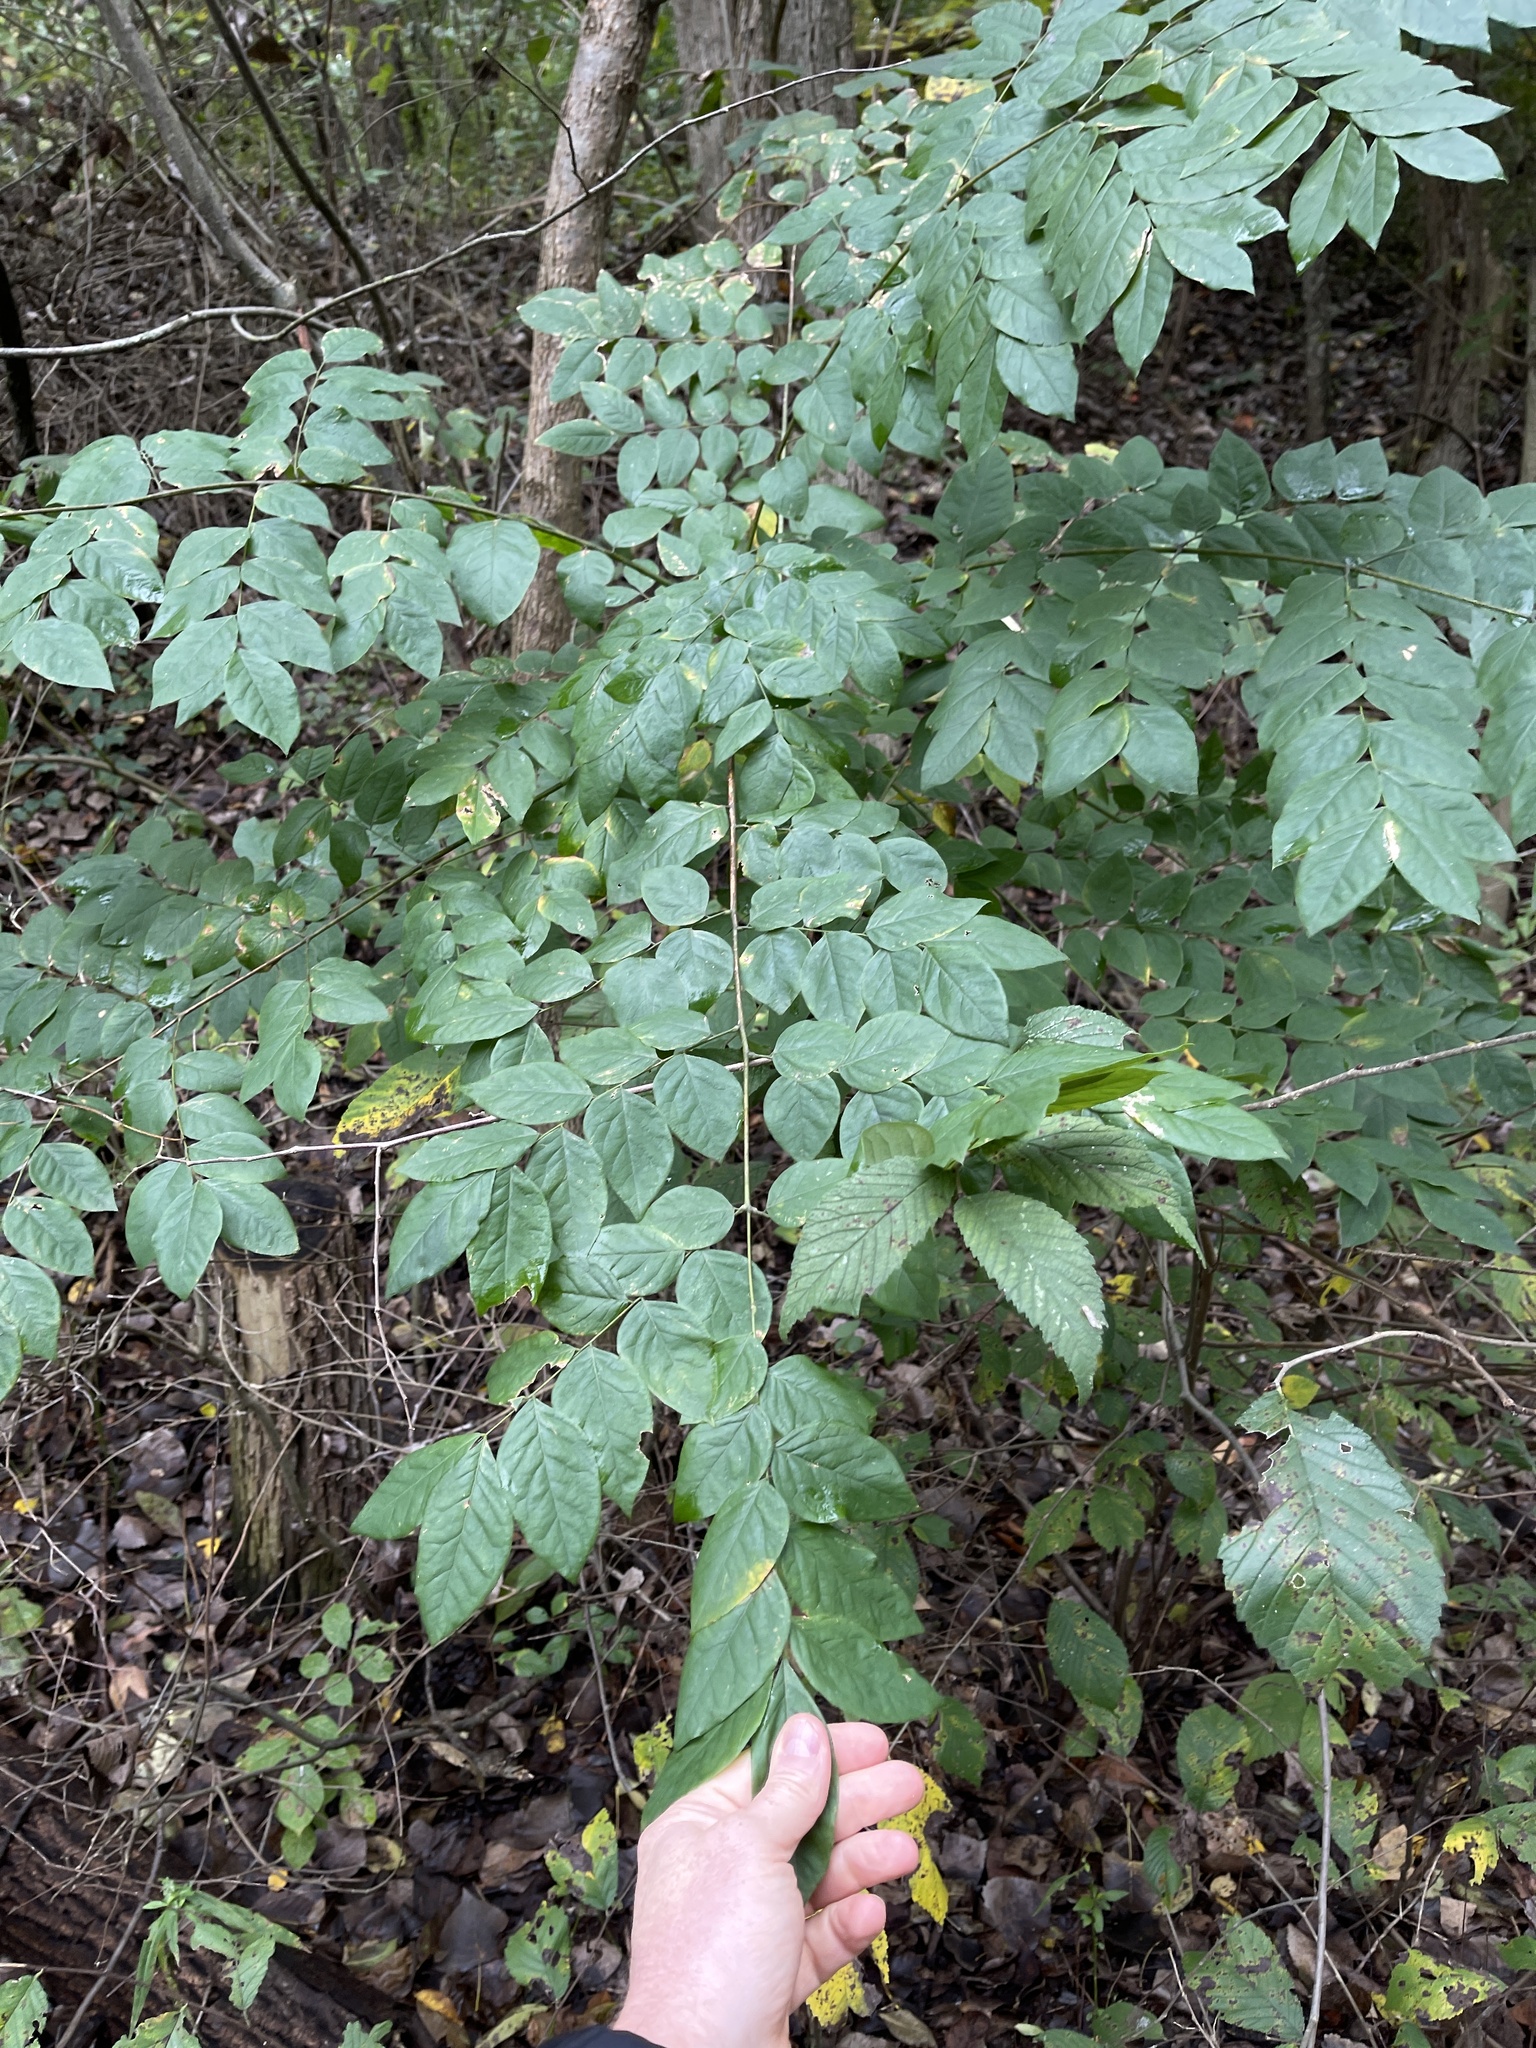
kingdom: Plantae
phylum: Tracheophyta
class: Magnoliopsida
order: Fabales
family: Fabaceae
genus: Gymnocladus
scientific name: Gymnocladus dioicus
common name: Kentucky coffee-tree
